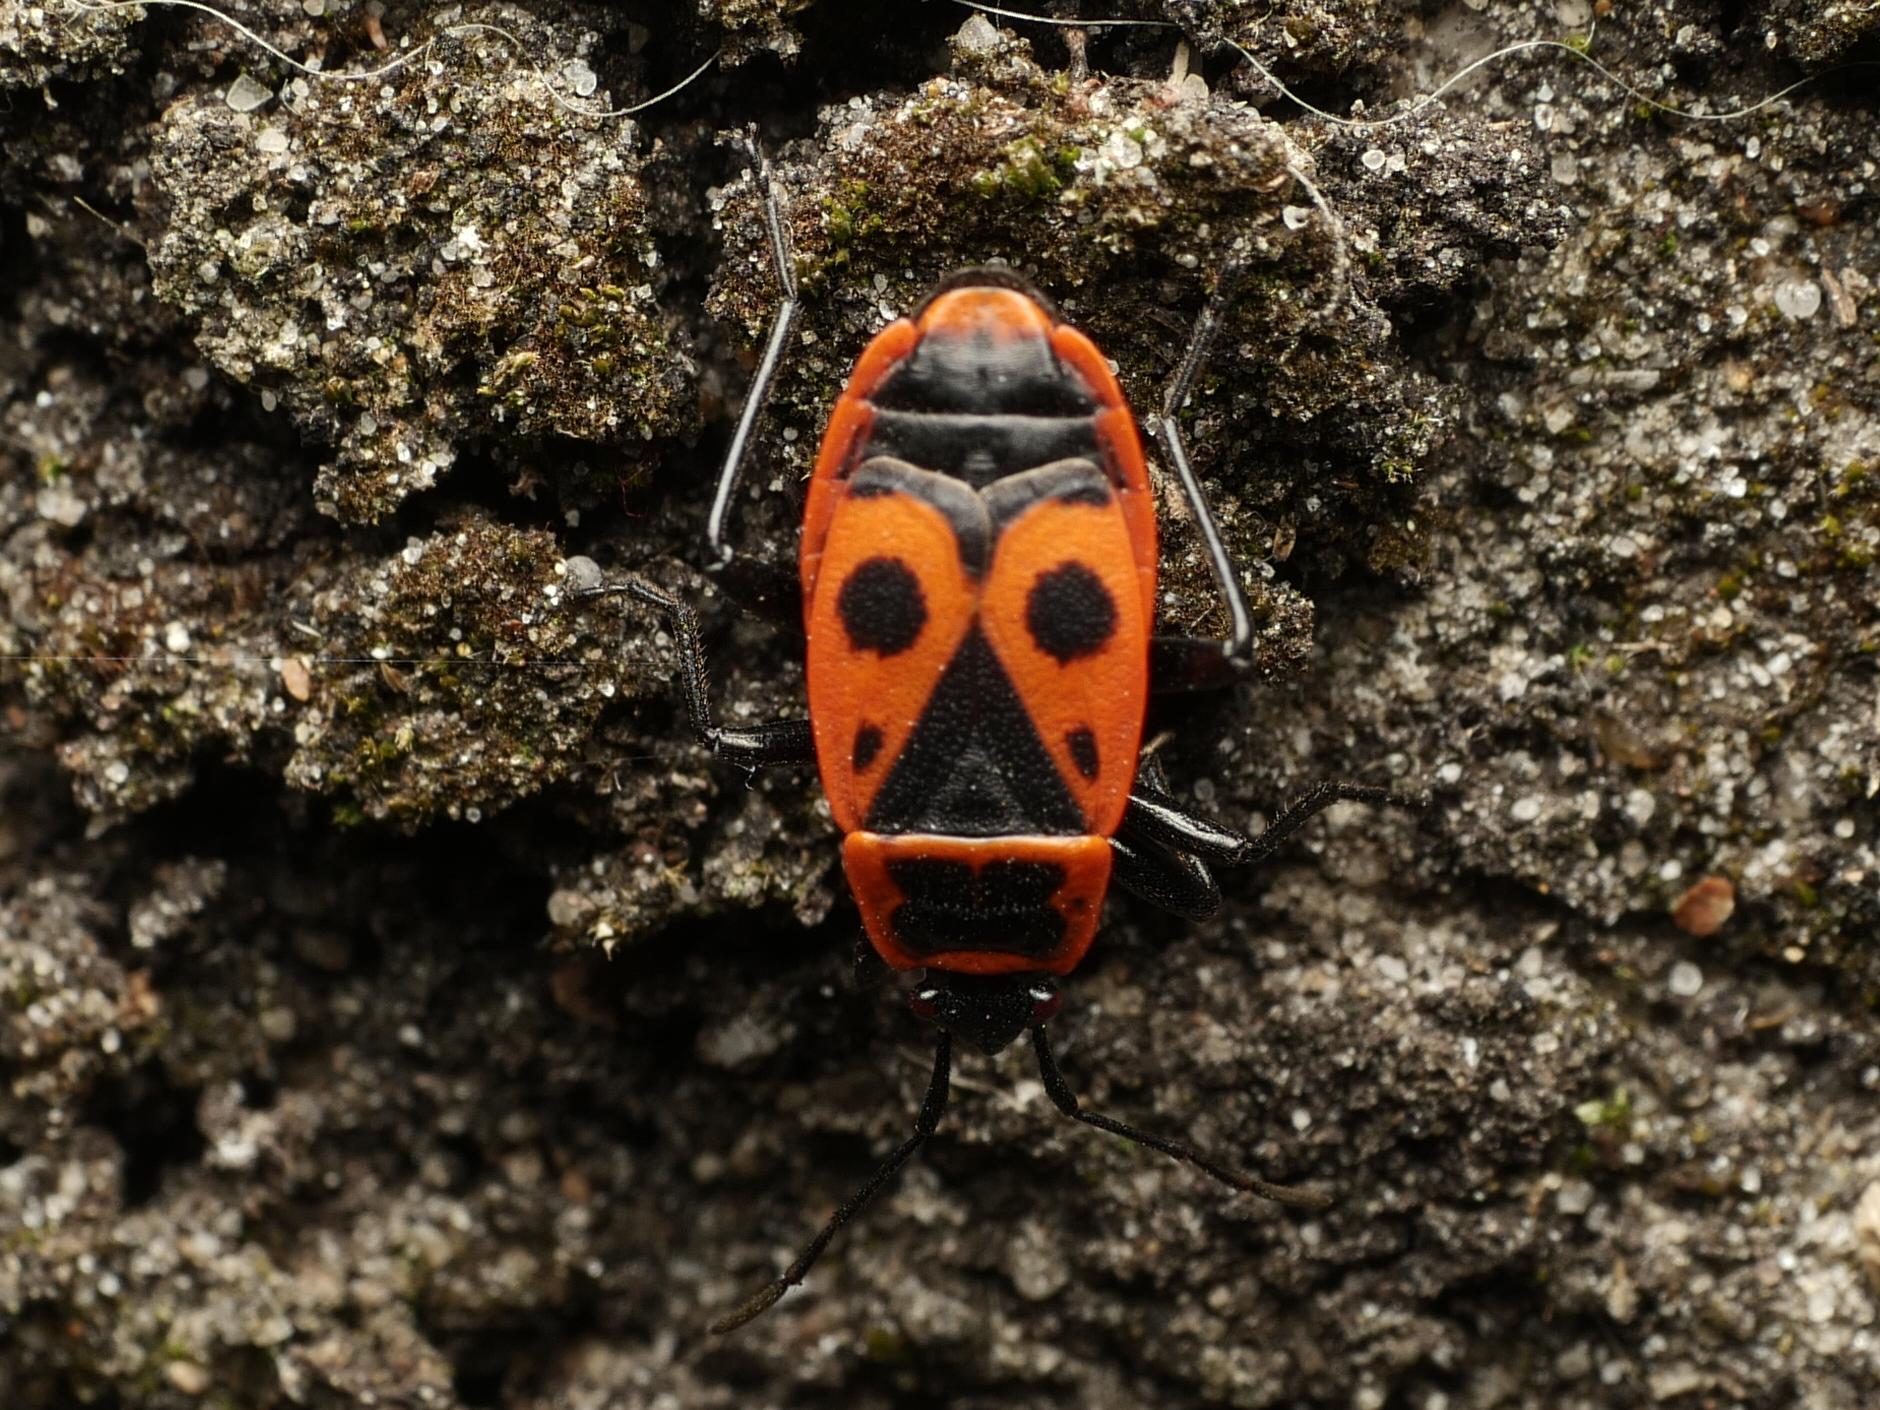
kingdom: Animalia
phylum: Arthropoda
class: Insecta
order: Hemiptera
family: Pyrrhocoridae
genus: Pyrrhocoris
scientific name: Pyrrhocoris apterus
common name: Firebug
